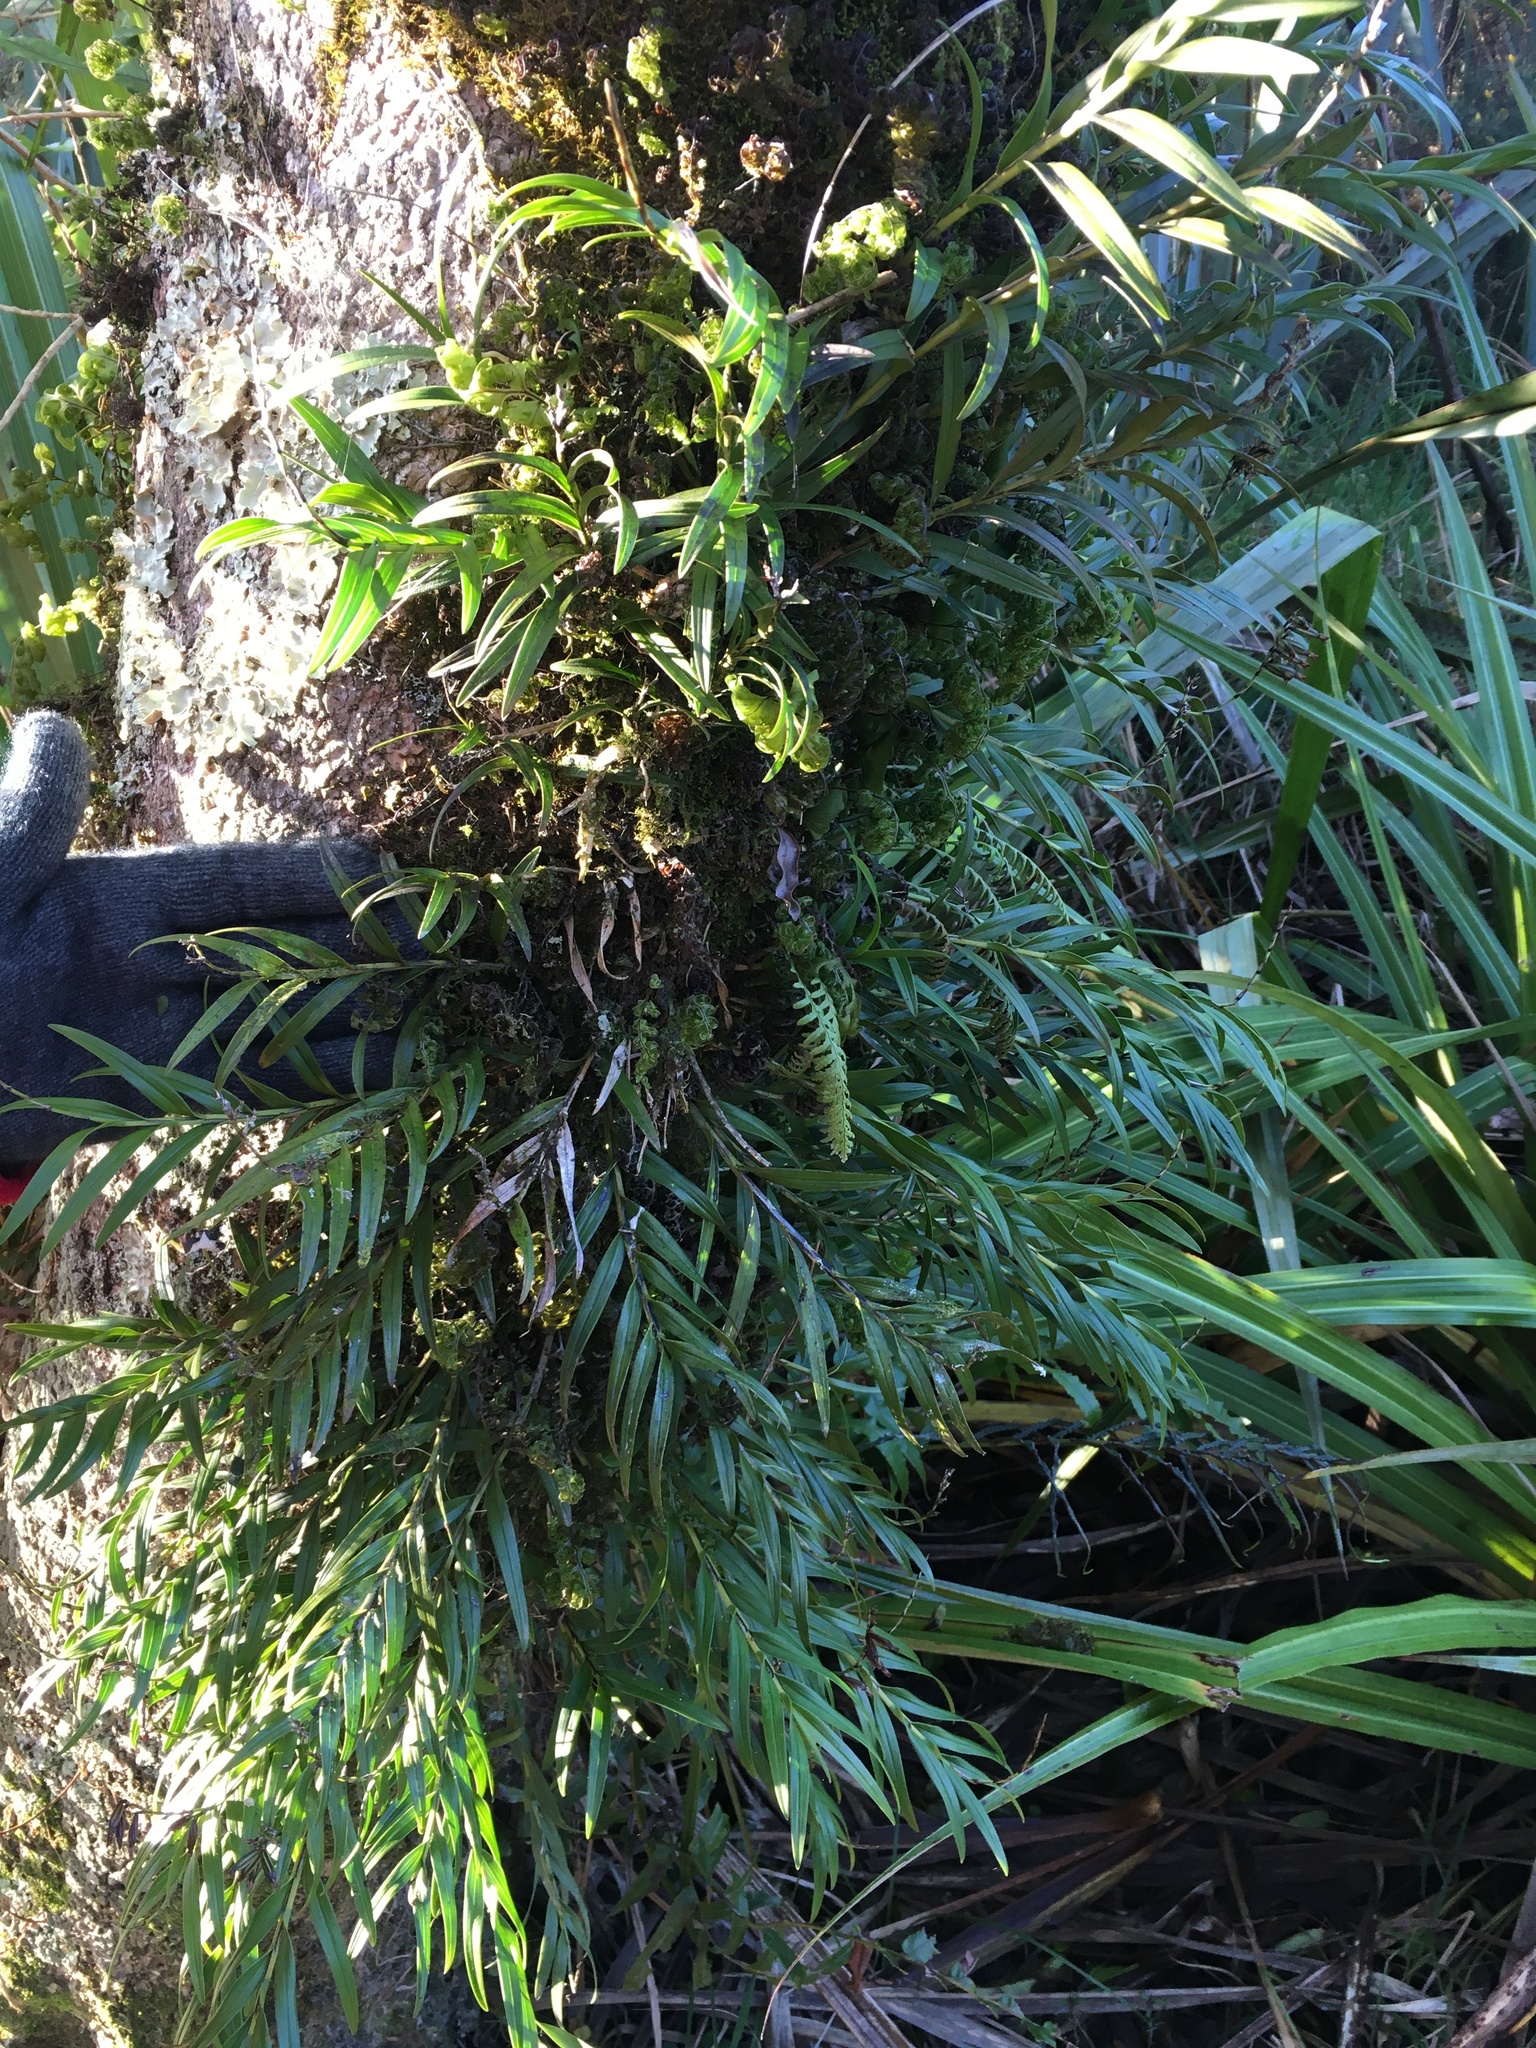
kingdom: Plantae
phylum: Tracheophyta
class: Liliopsida
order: Asparagales
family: Orchidaceae
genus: Earina
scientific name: Earina autumnalis
